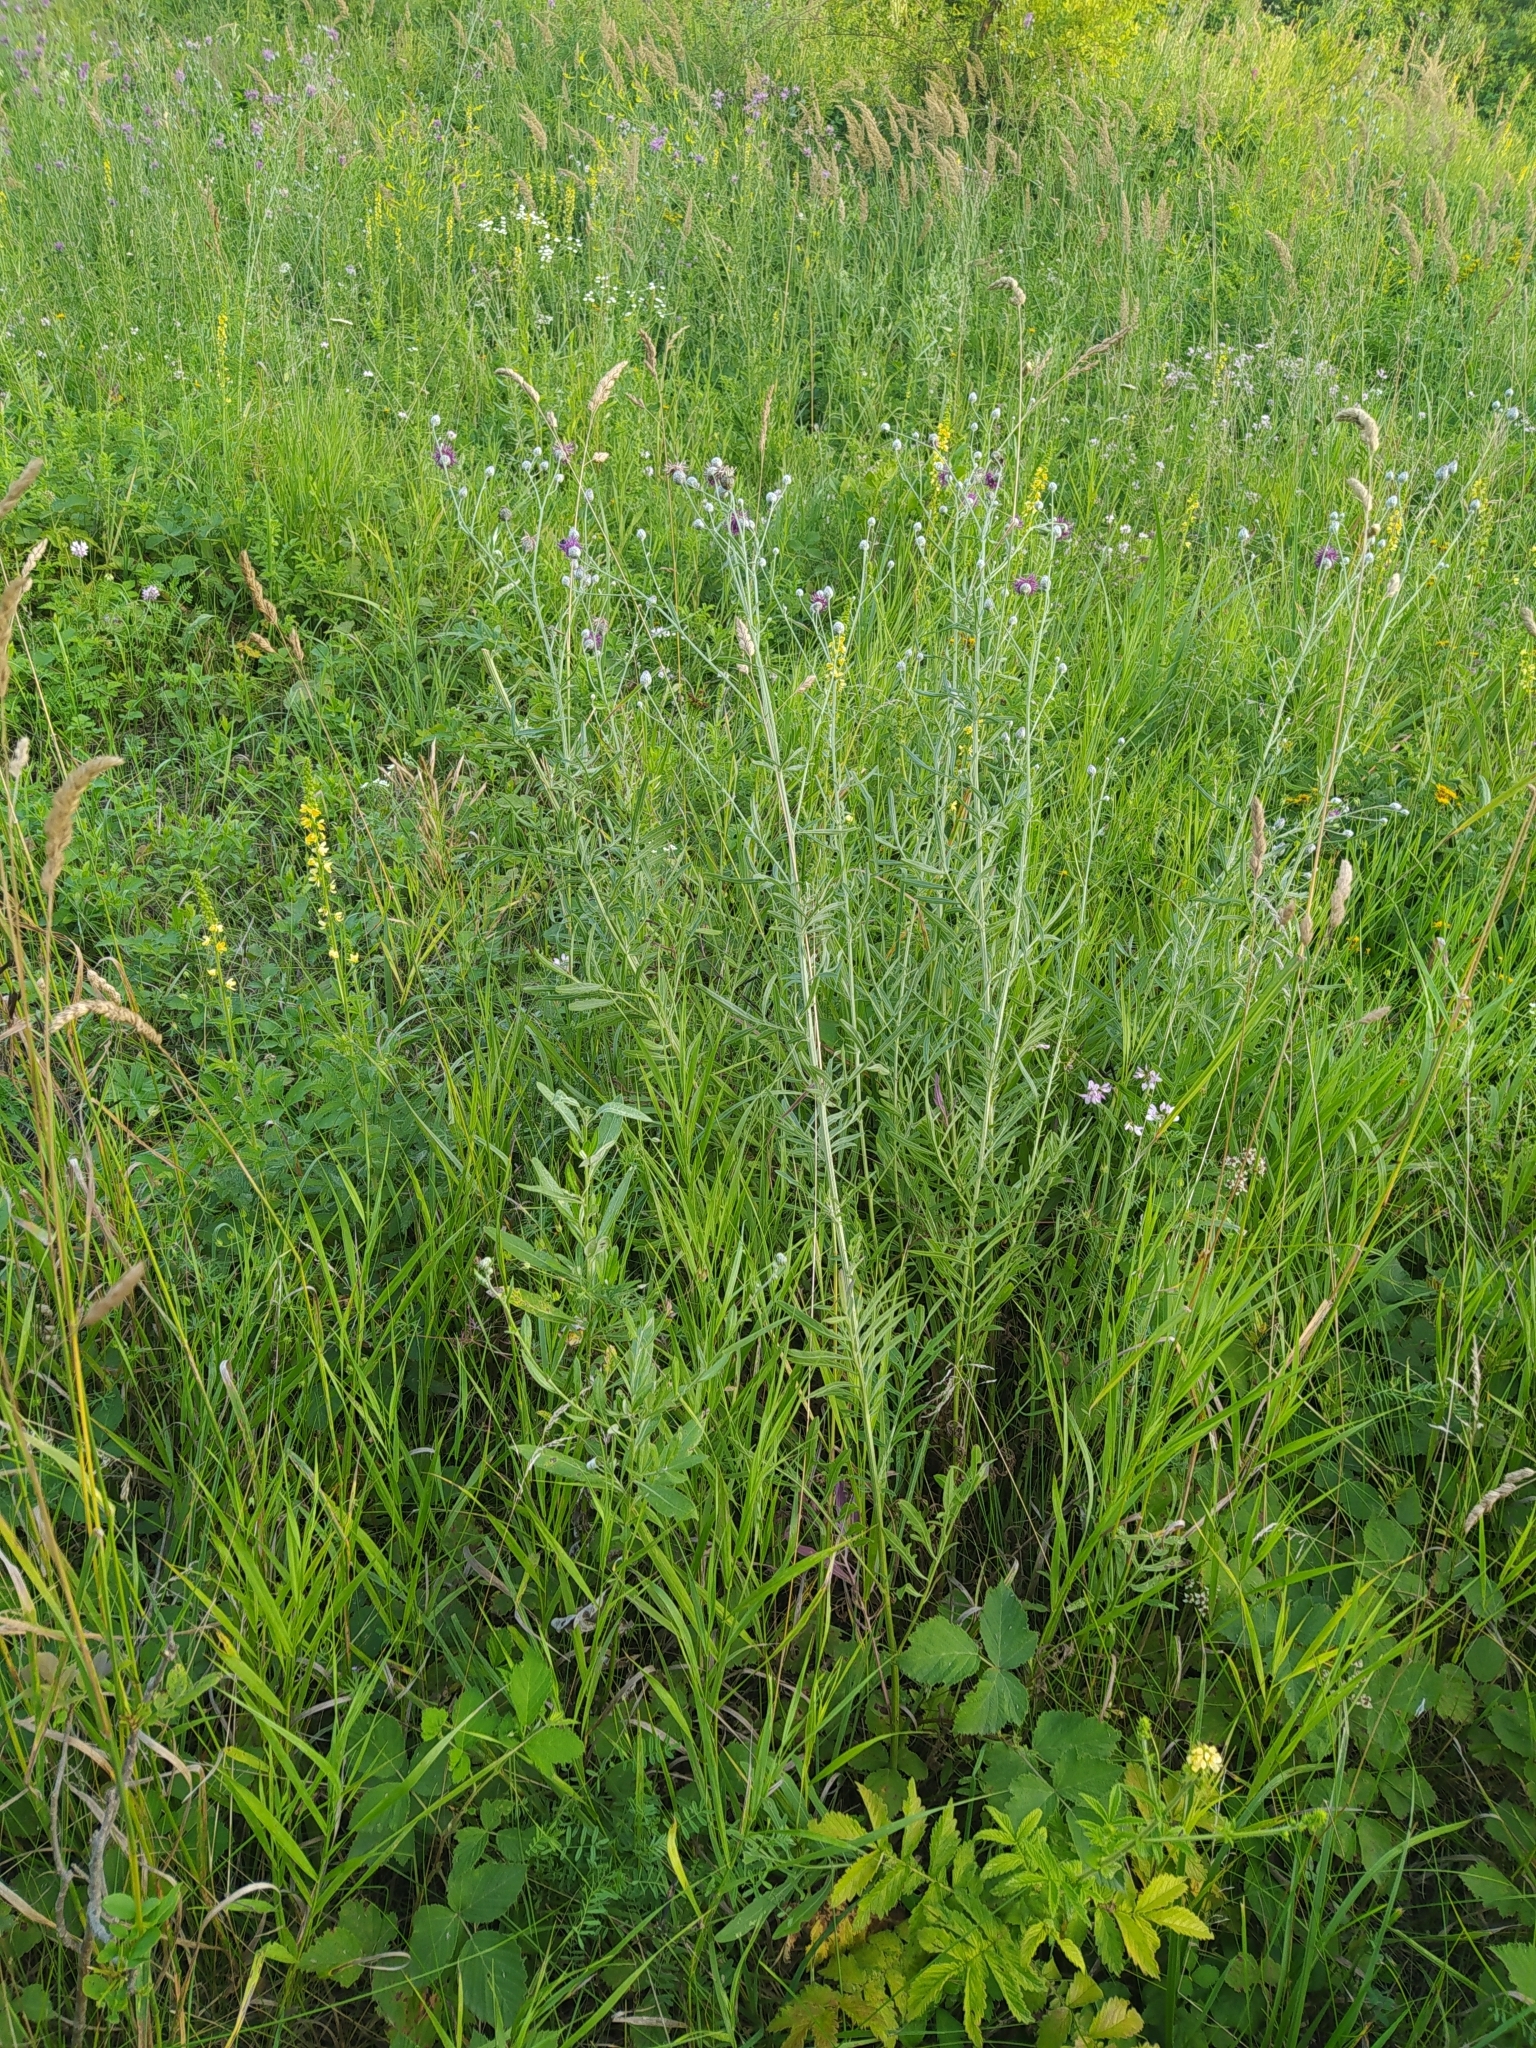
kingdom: Plantae
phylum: Tracheophyta
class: Magnoliopsida
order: Asterales
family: Asteraceae
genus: Centaurea
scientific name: Centaurea adpressa
